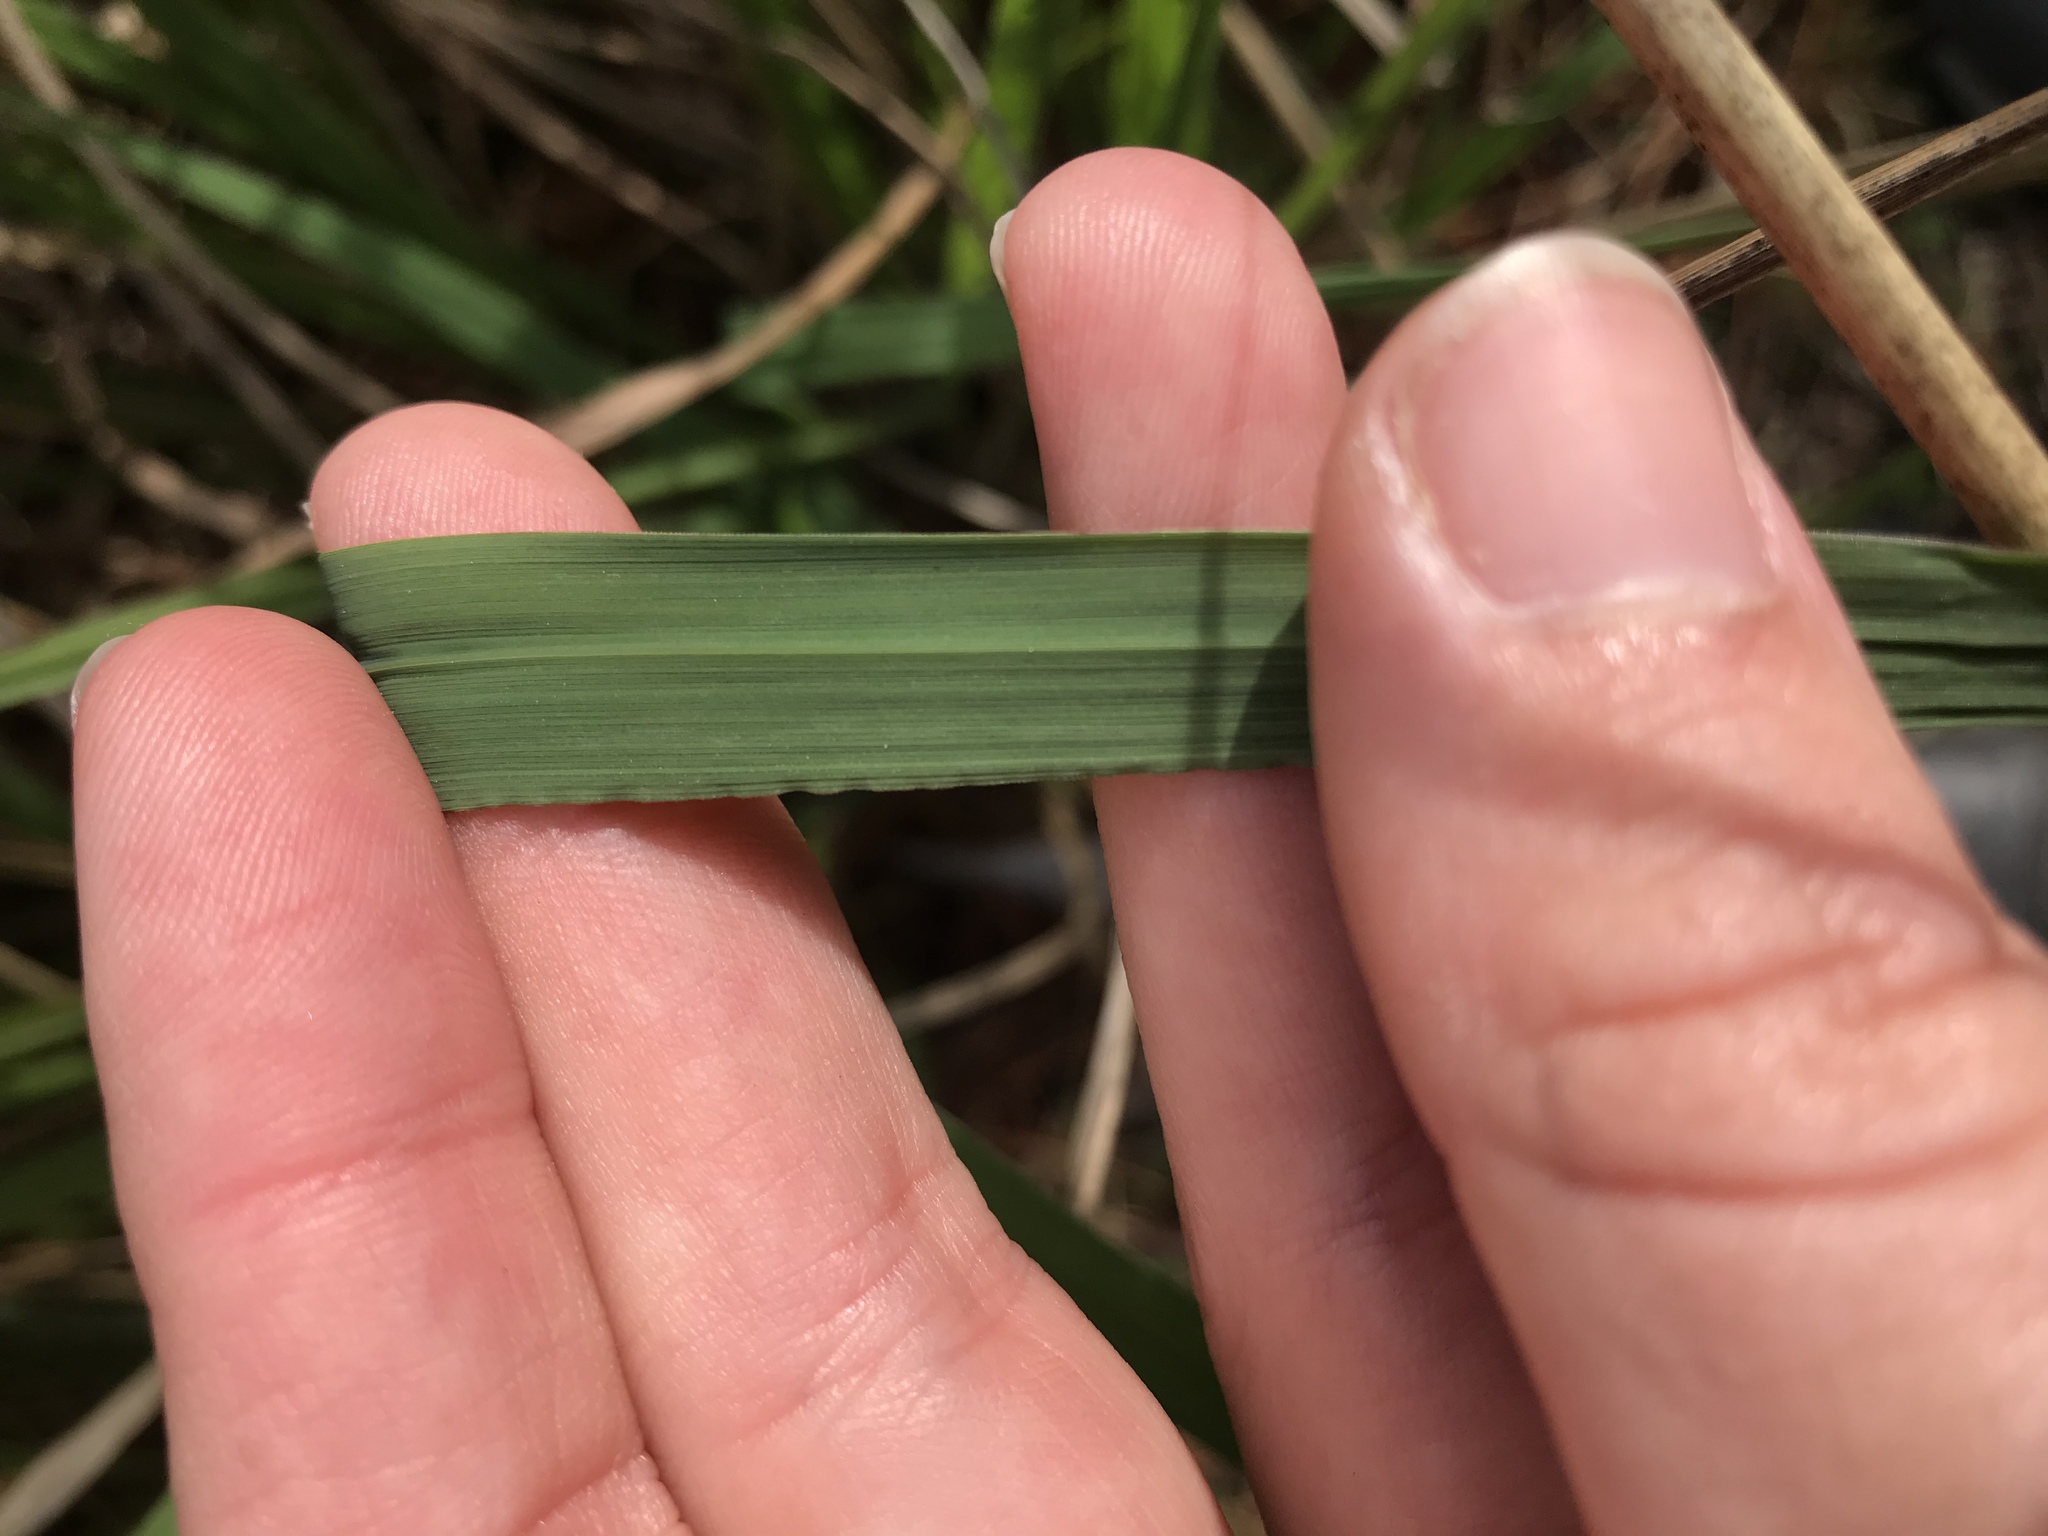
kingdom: Plantae
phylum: Tracheophyta
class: Liliopsida
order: Poales
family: Poaceae
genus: Imperata
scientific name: Imperata cylindrica
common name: Cogongrass
